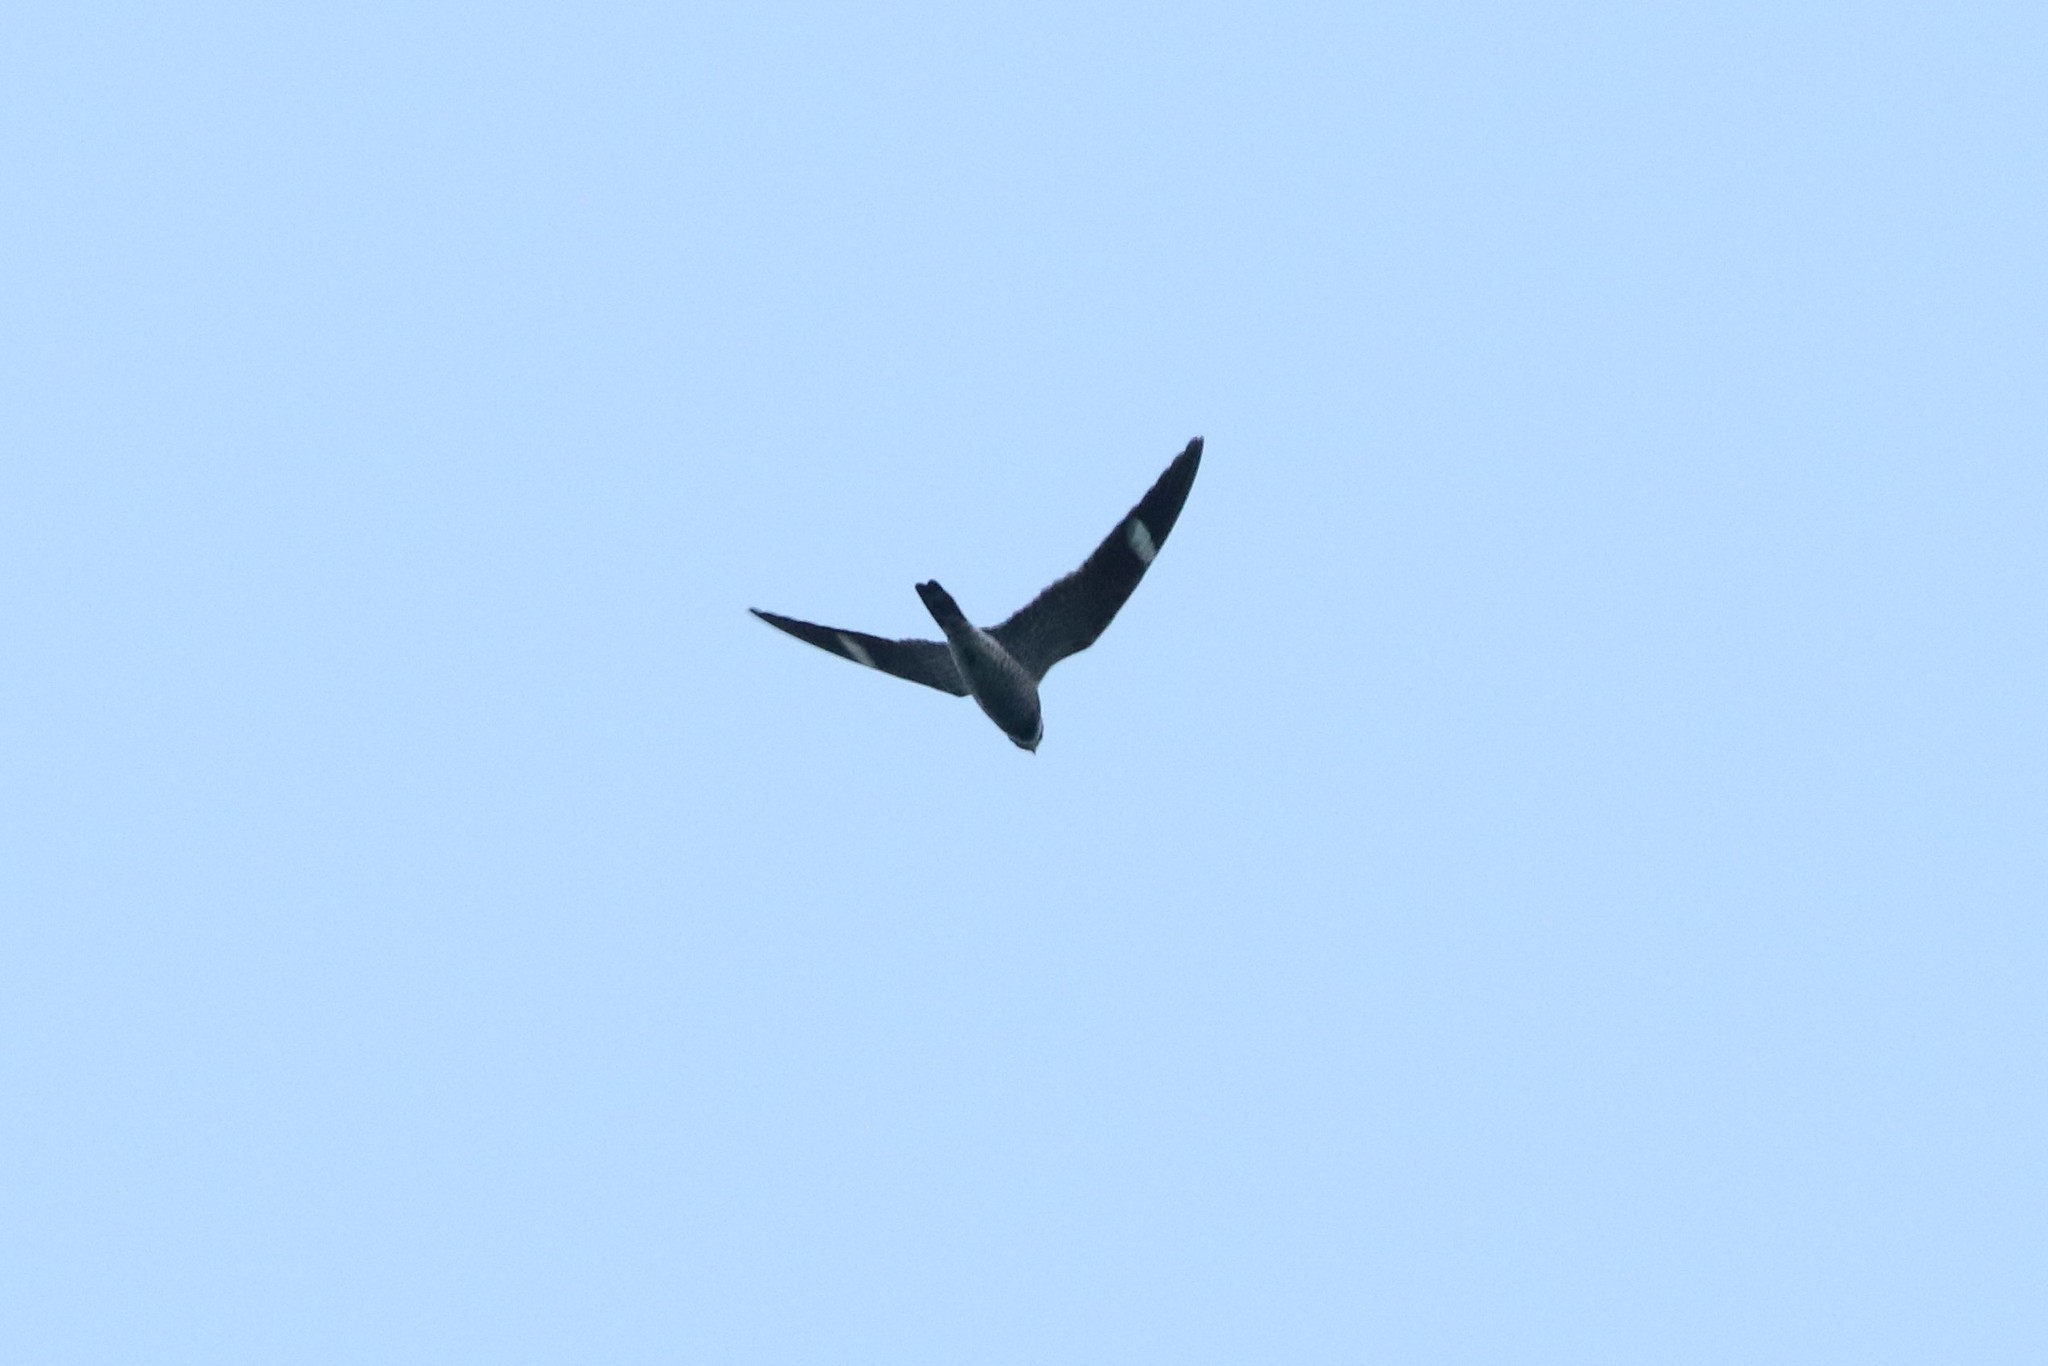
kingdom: Animalia
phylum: Chordata
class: Aves
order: Caprimulgiformes
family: Caprimulgidae
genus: Chordeiles
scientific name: Chordeiles minor
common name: Common nighthawk
